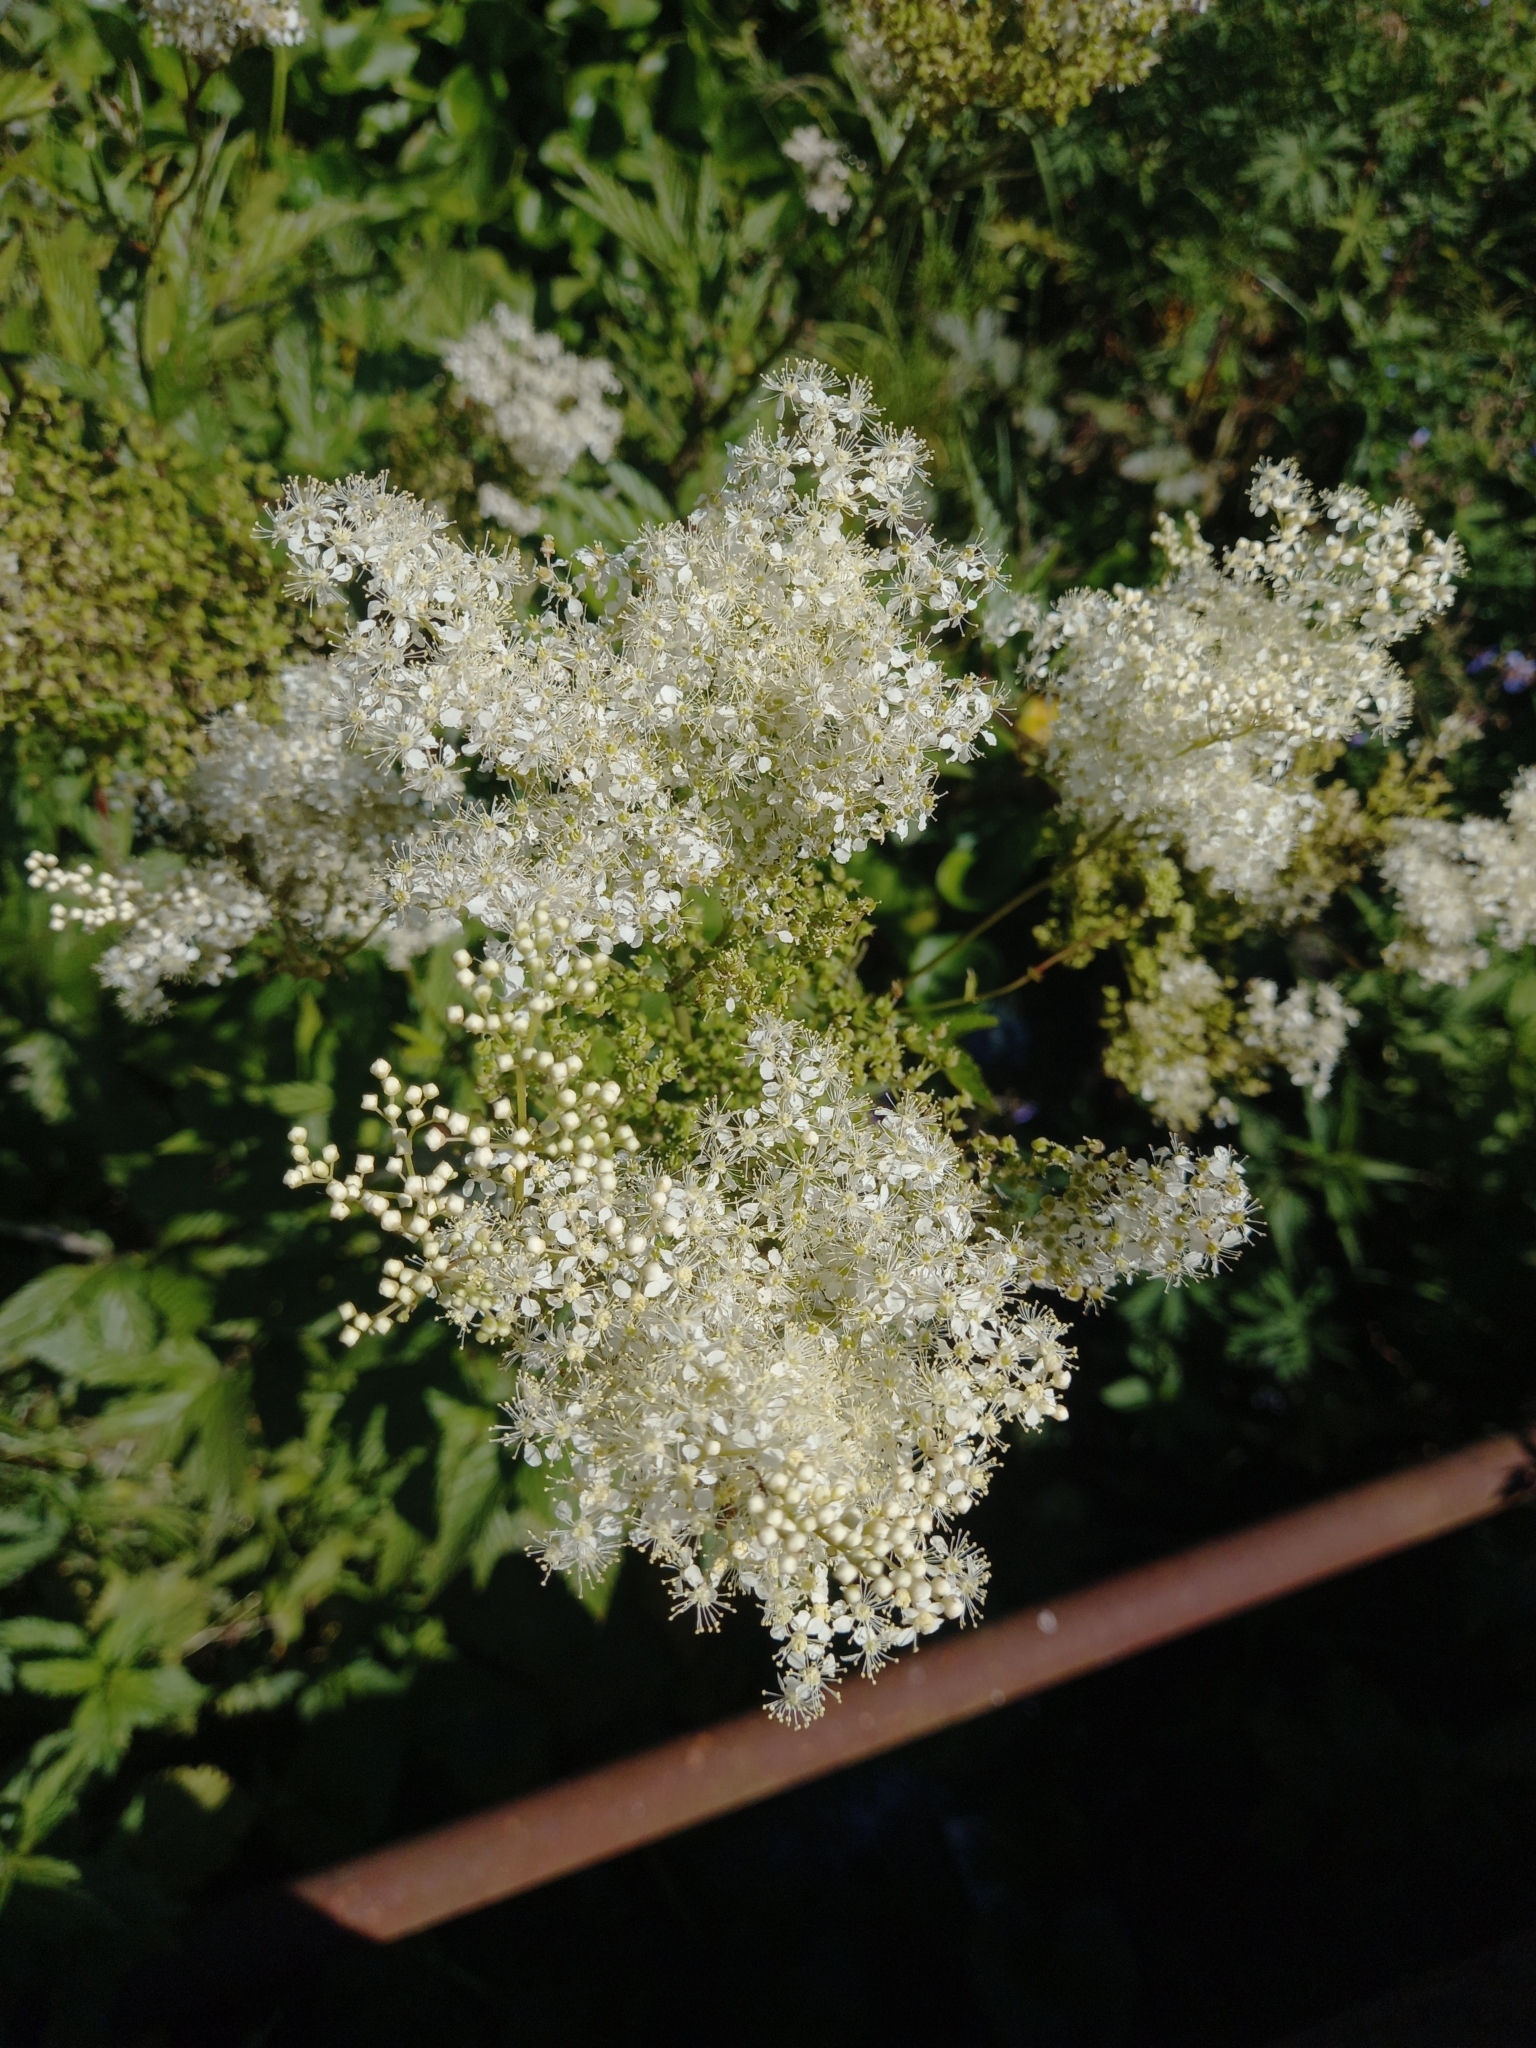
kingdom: Plantae
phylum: Tracheophyta
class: Magnoliopsida
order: Rosales
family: Rosaceae
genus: Filipendula
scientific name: Filipendula ulmaria
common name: Meadowsweet
